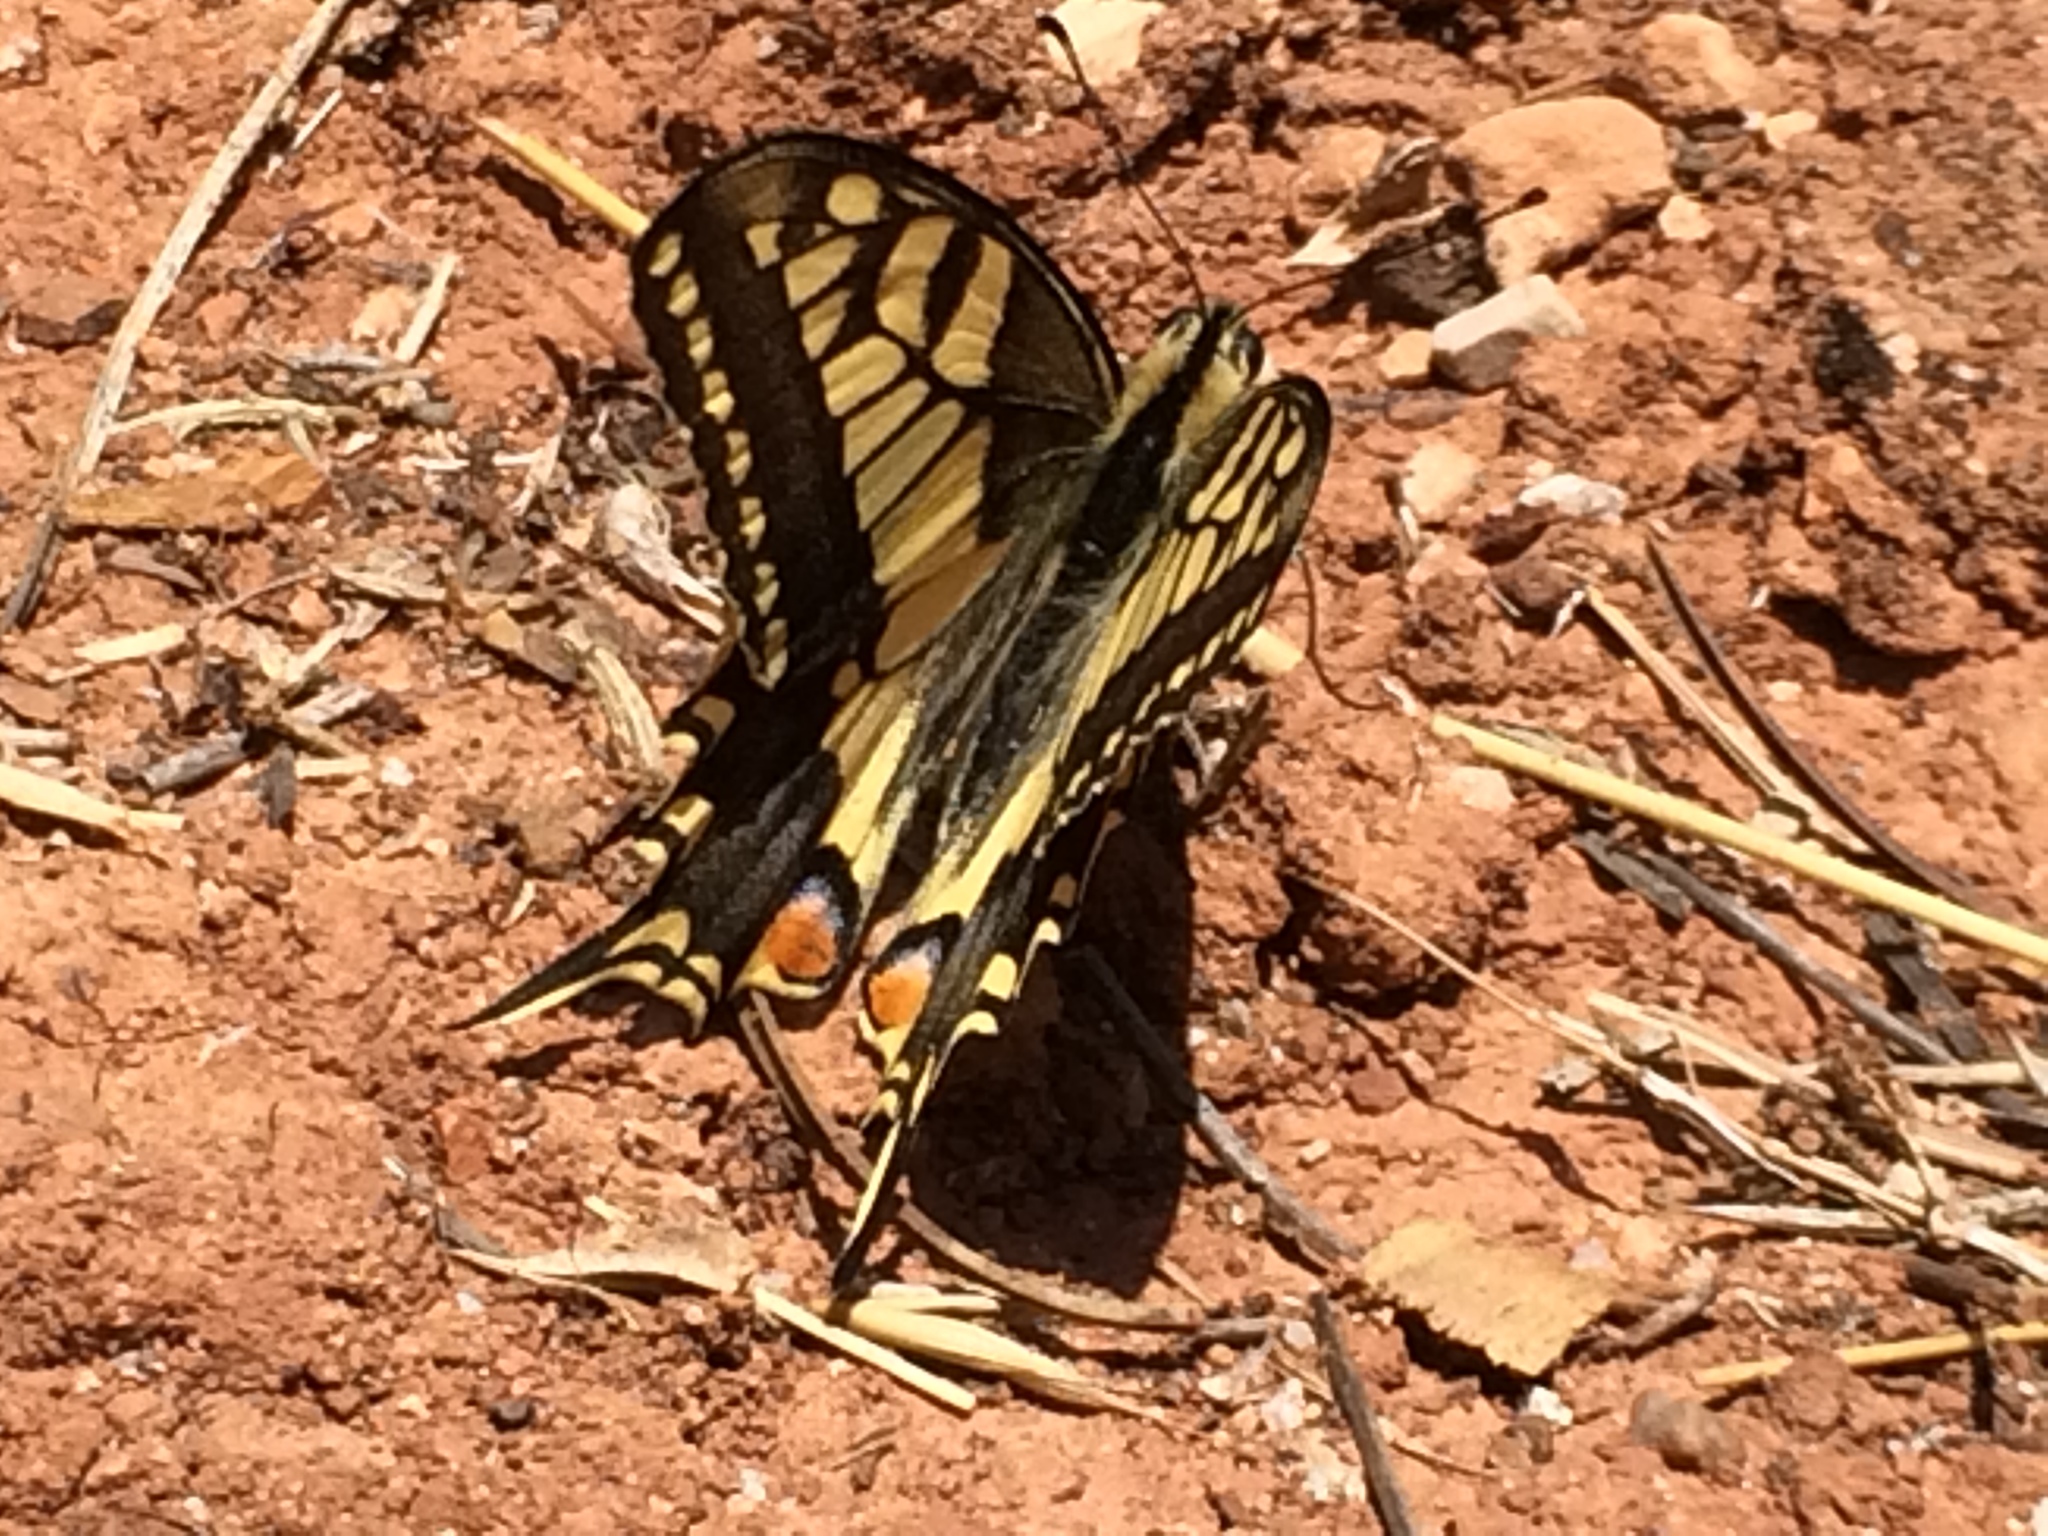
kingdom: Animalia
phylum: Arthropoda
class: Insecta
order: Lepidoptera
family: Papilionidae
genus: Papilio
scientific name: Papilio machaon
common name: Swallowtail
